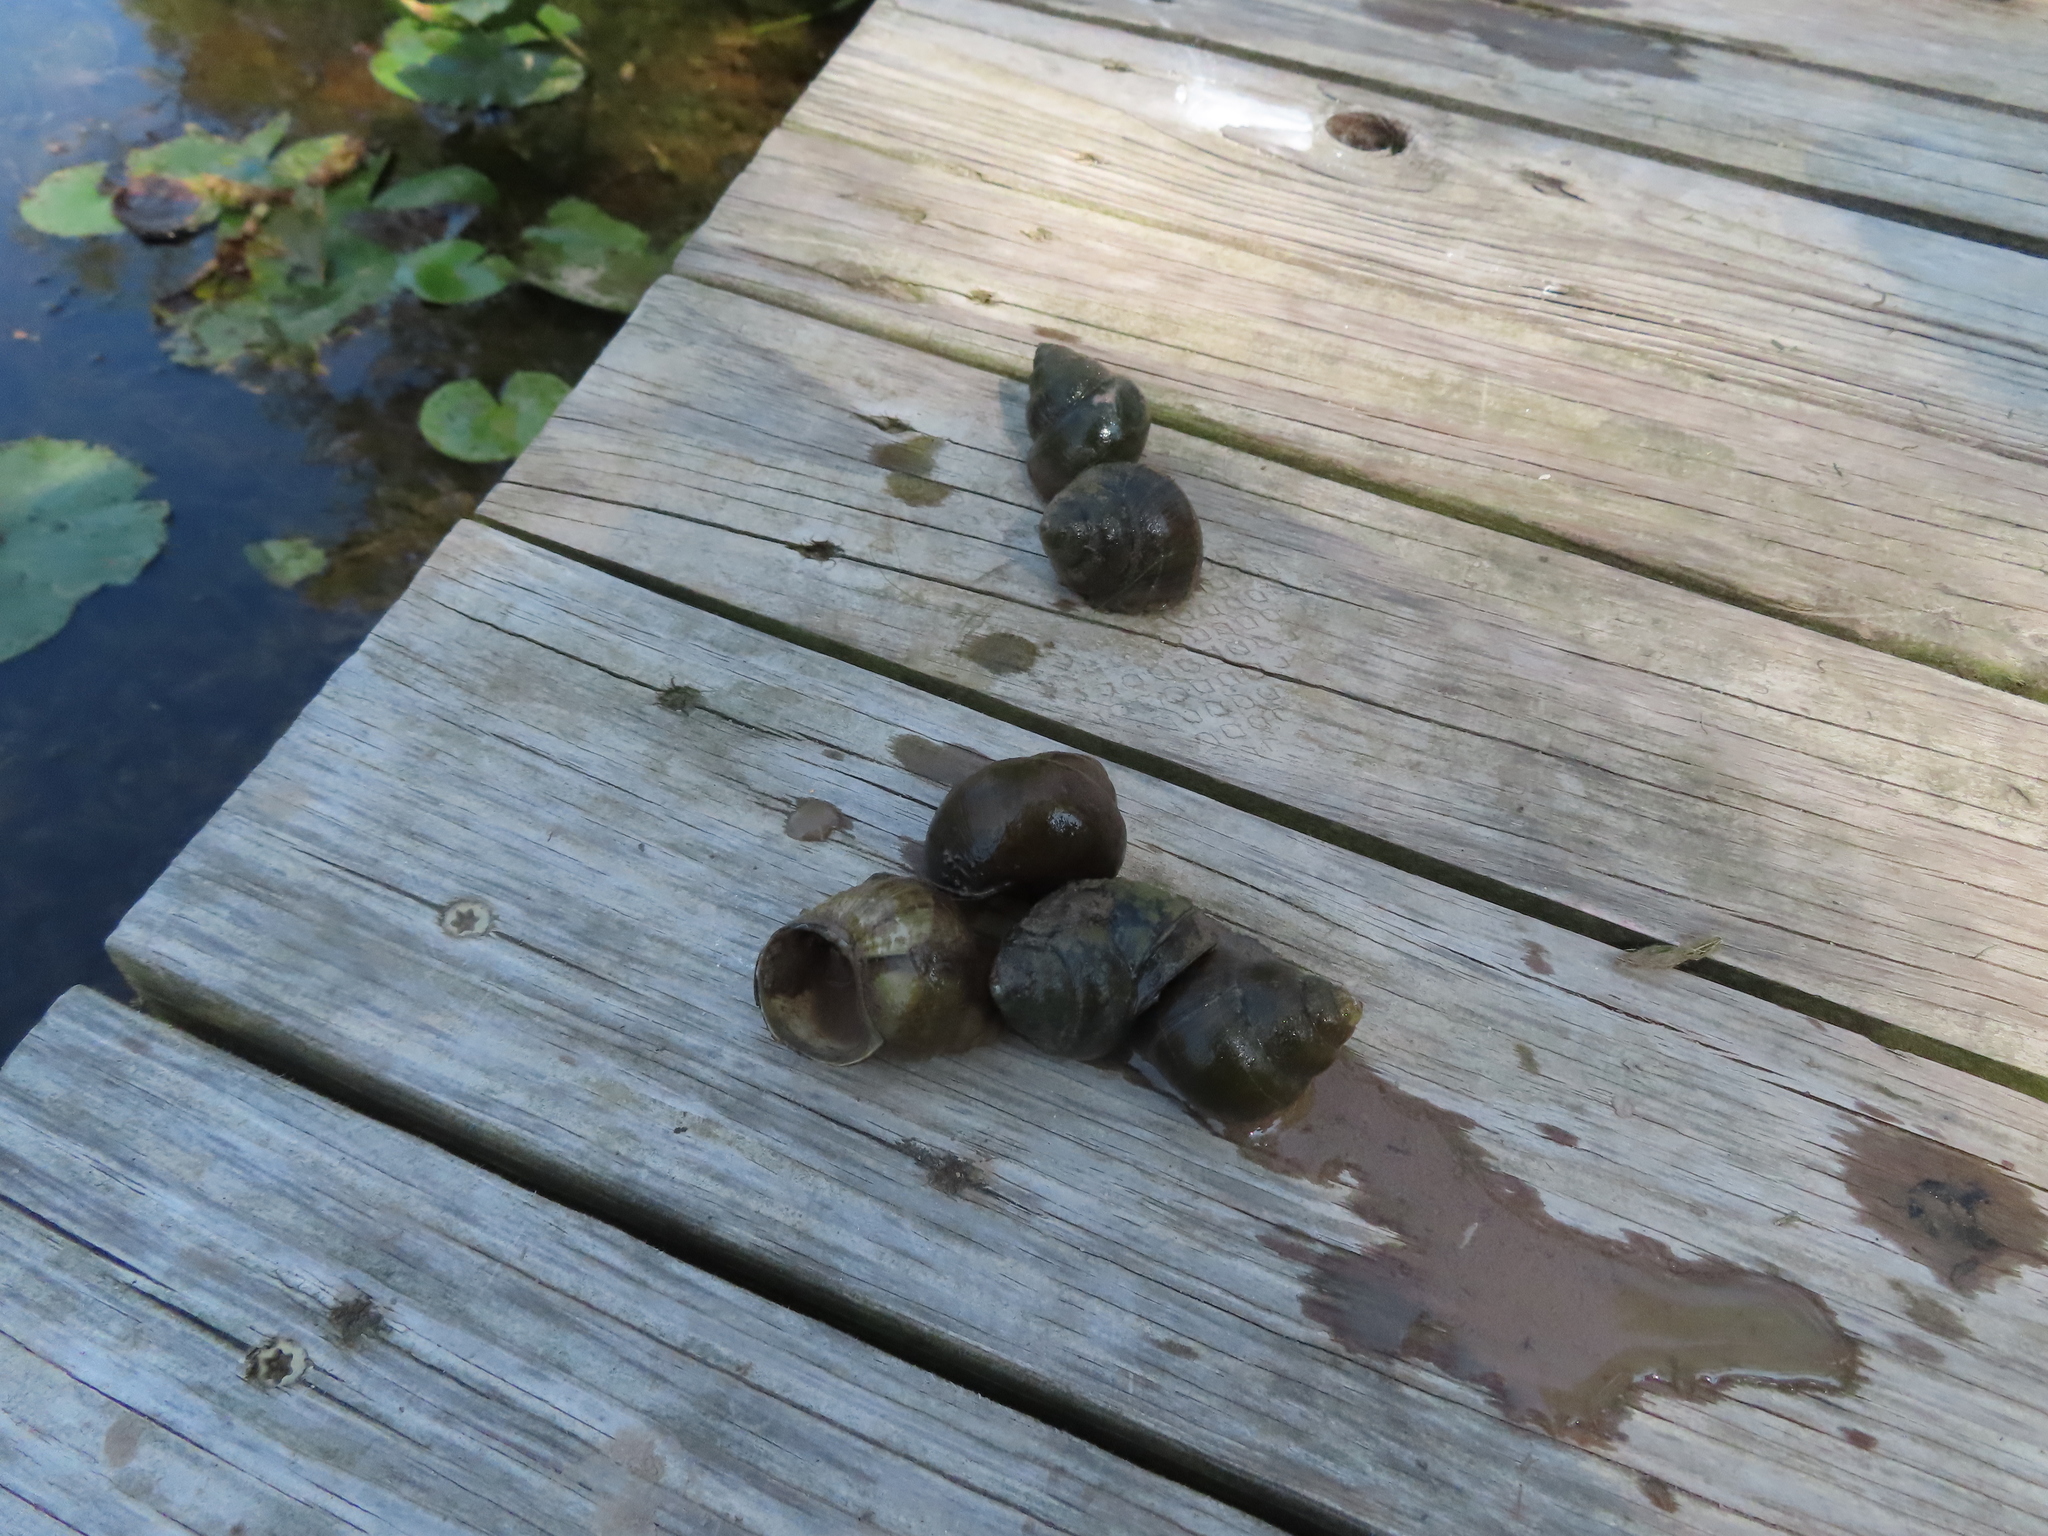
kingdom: Animalia
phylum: Mollusca
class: Gastropoda
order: Architaenioglossa
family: Viviparidae
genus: Cipangopaludina
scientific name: Cipangopaludina chinensis
